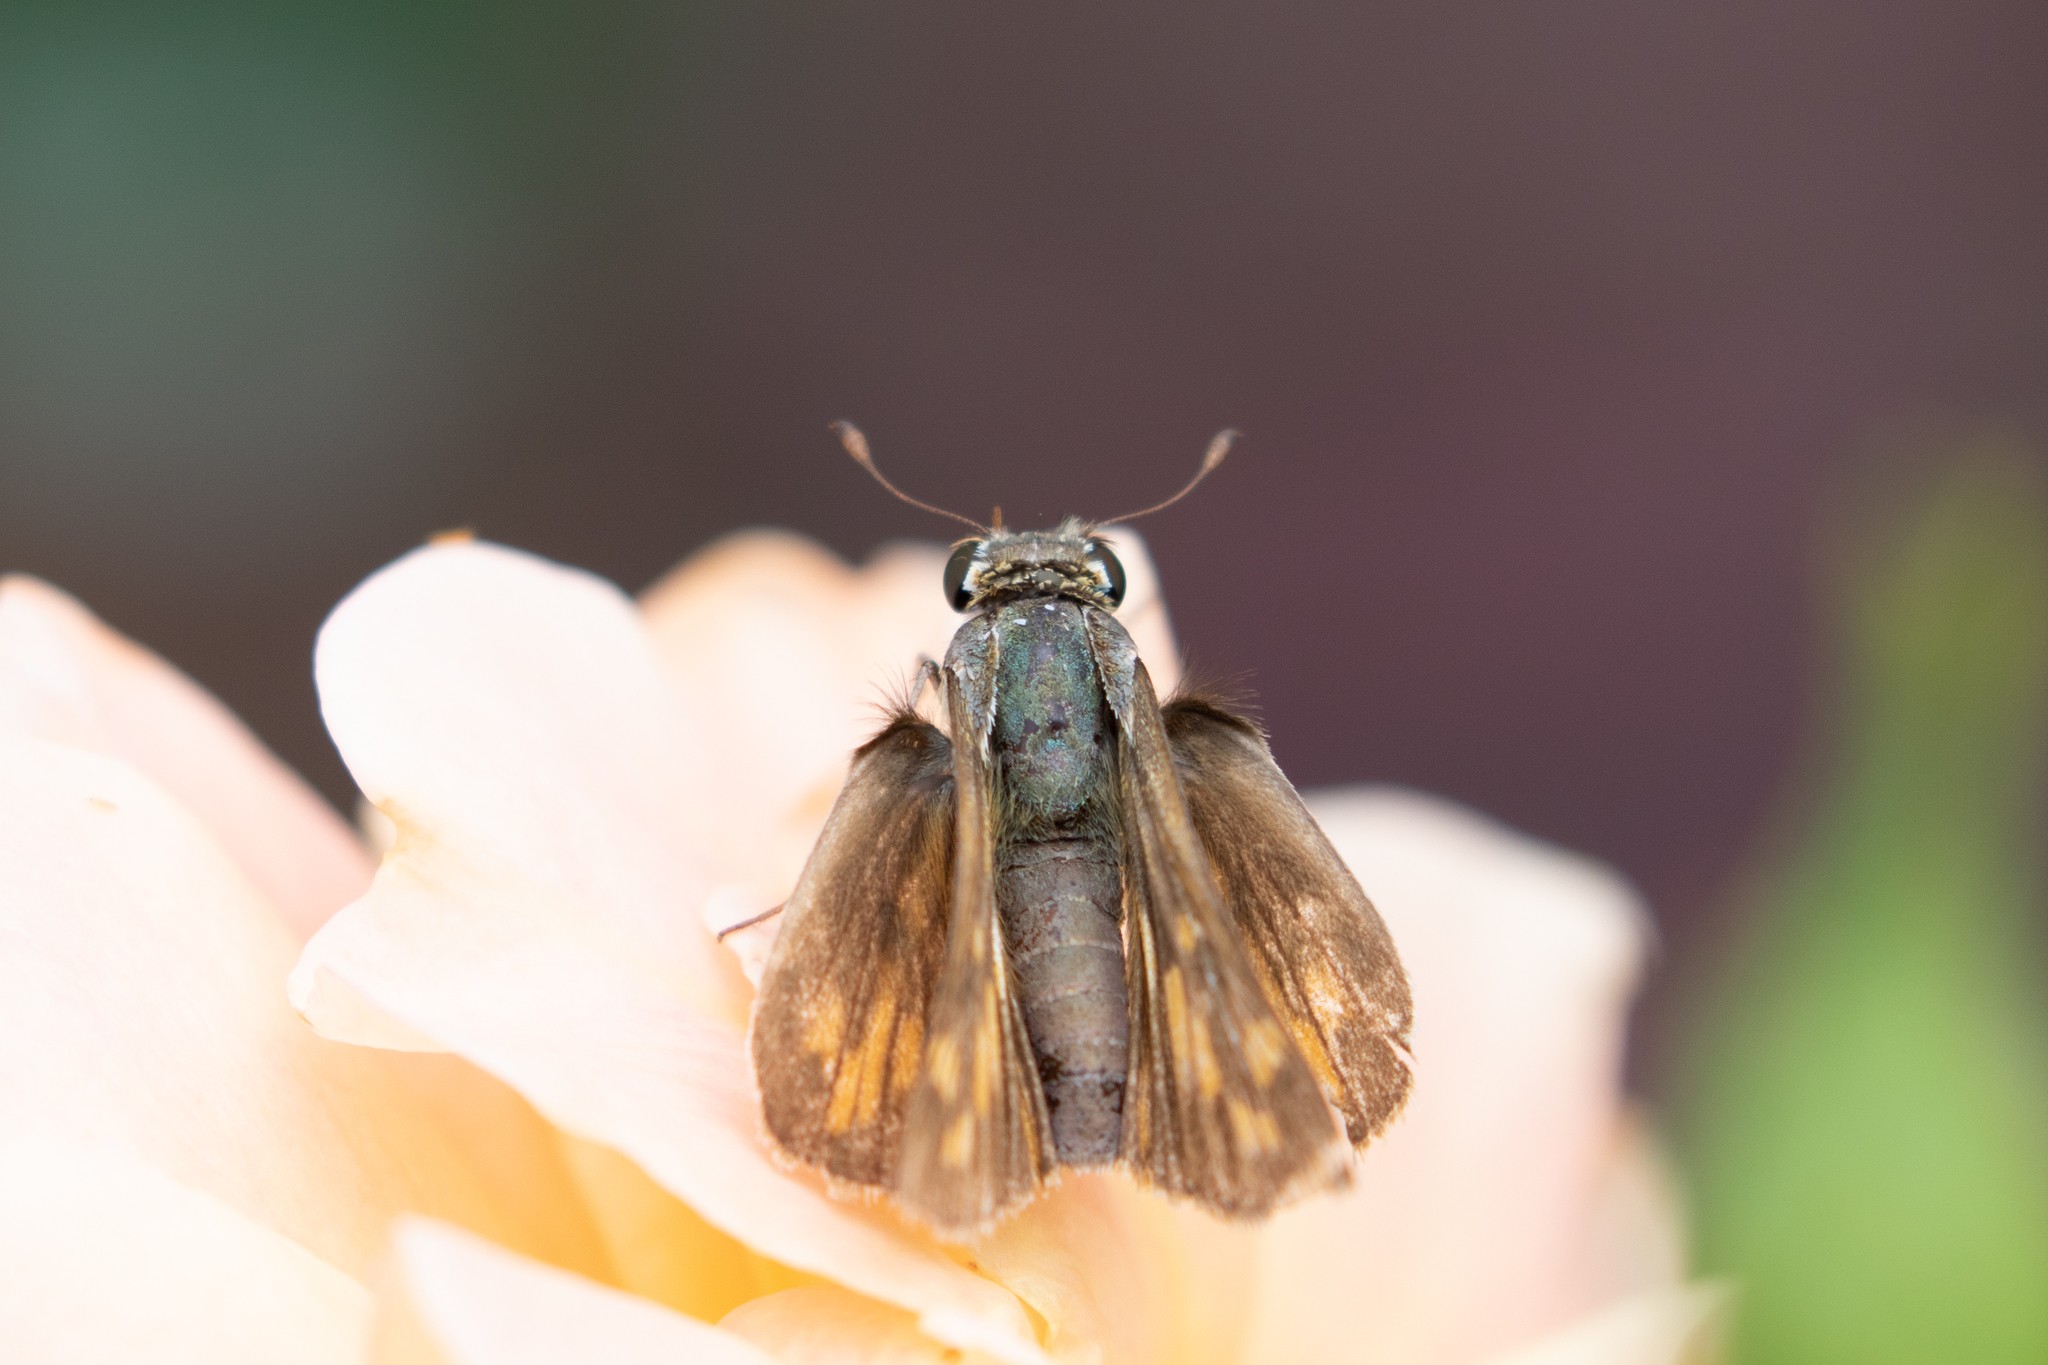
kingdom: Animalia
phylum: Arthropoda
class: Insecta
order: Lepidoptera
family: Hesperiidae
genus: Hylephila
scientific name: Hylephila phyleus
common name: Fiery skipper
